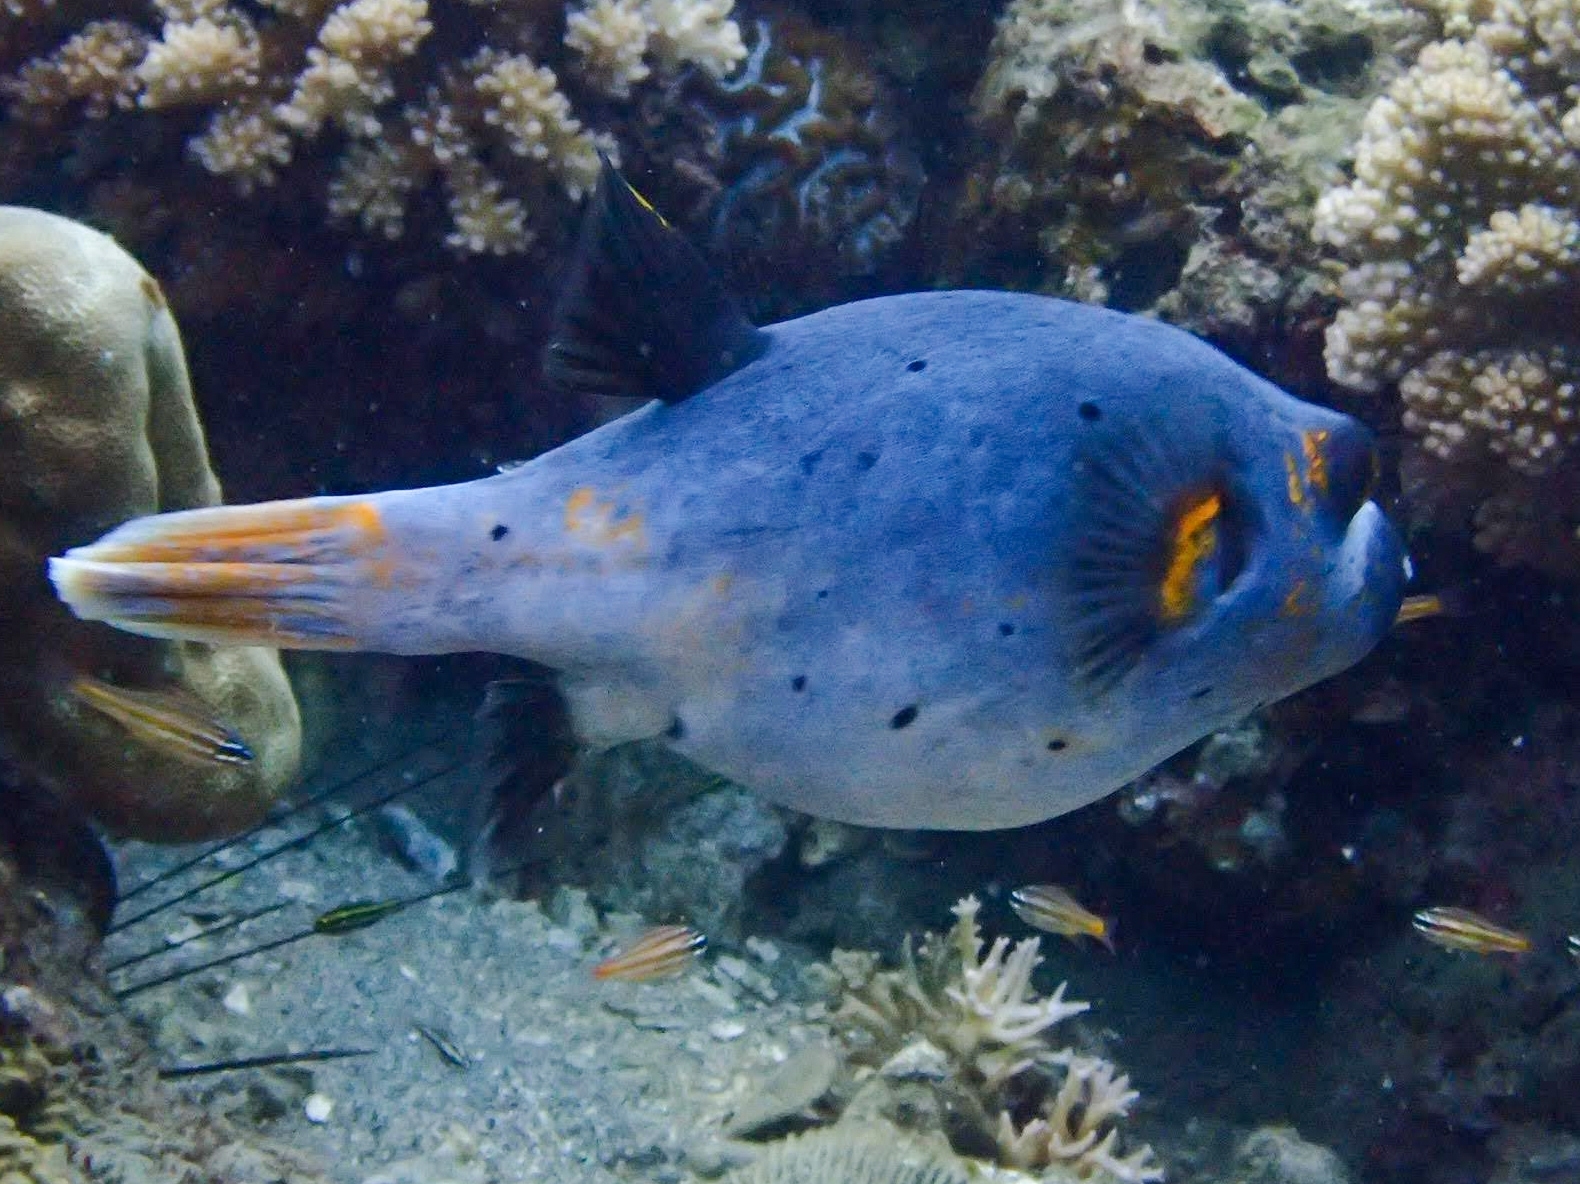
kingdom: Animalia
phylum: Chordata
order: Tetraodontiformes
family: Tetraodontidae
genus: Arothron
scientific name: Arothron nigropunctatus
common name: Black spotted blow fish
